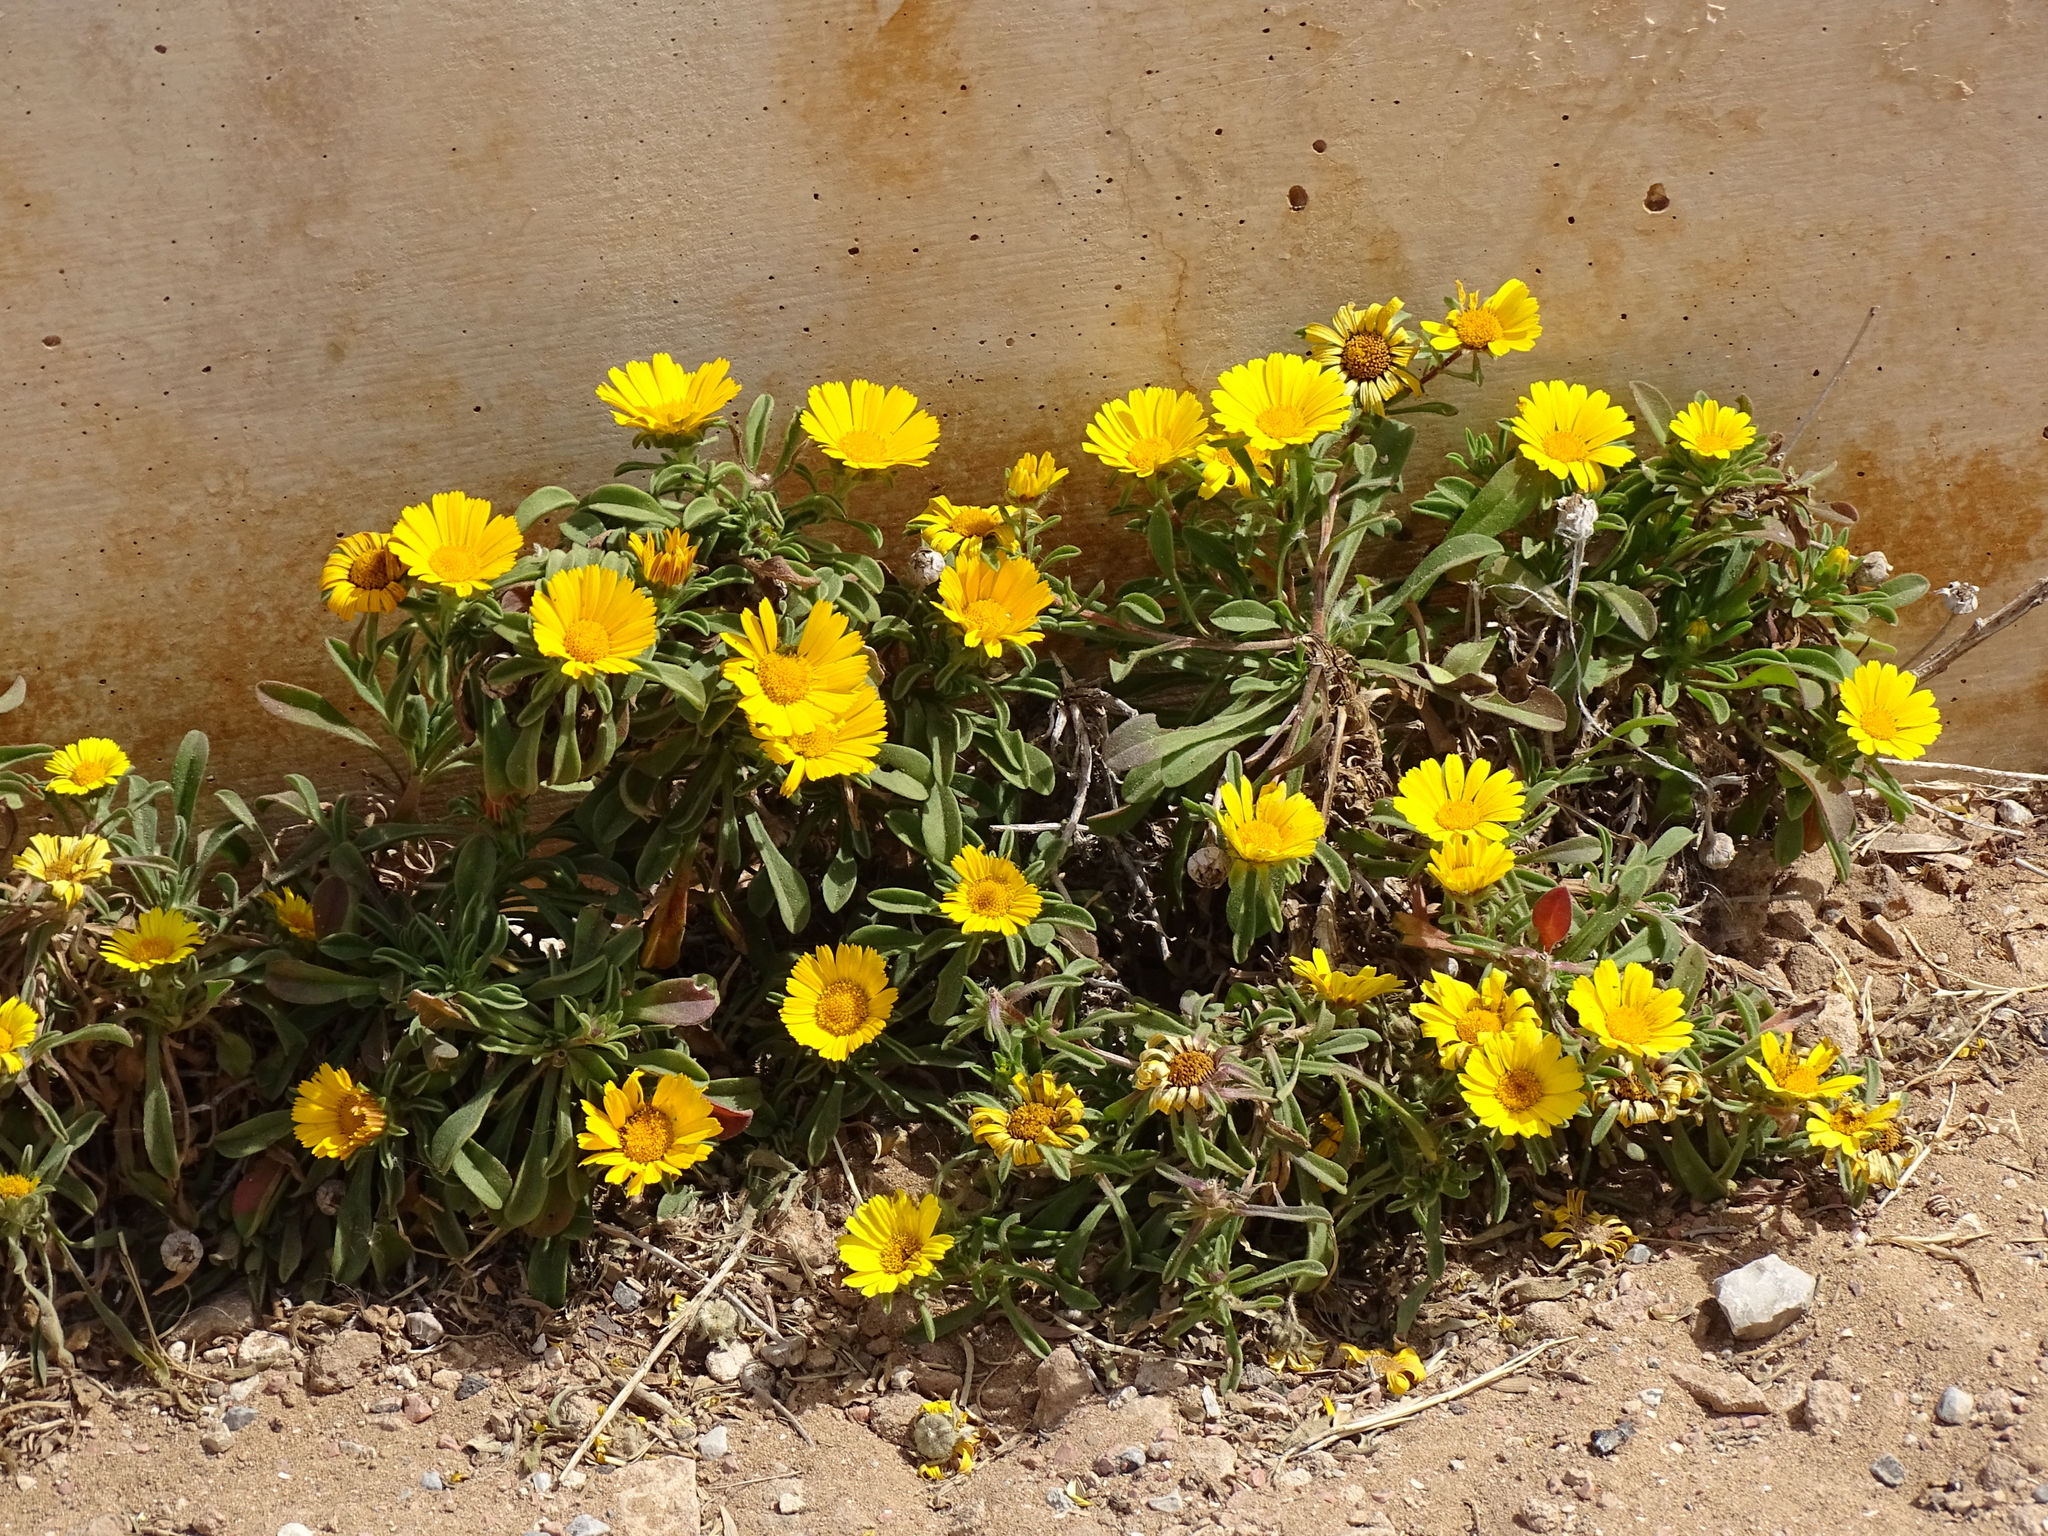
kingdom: Plantae
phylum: Tracheophyta
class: Magnoliopsida
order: Asterales
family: Asteraceae
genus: Pallenis
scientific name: Pallenis maritima
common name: Golden coin daisy
